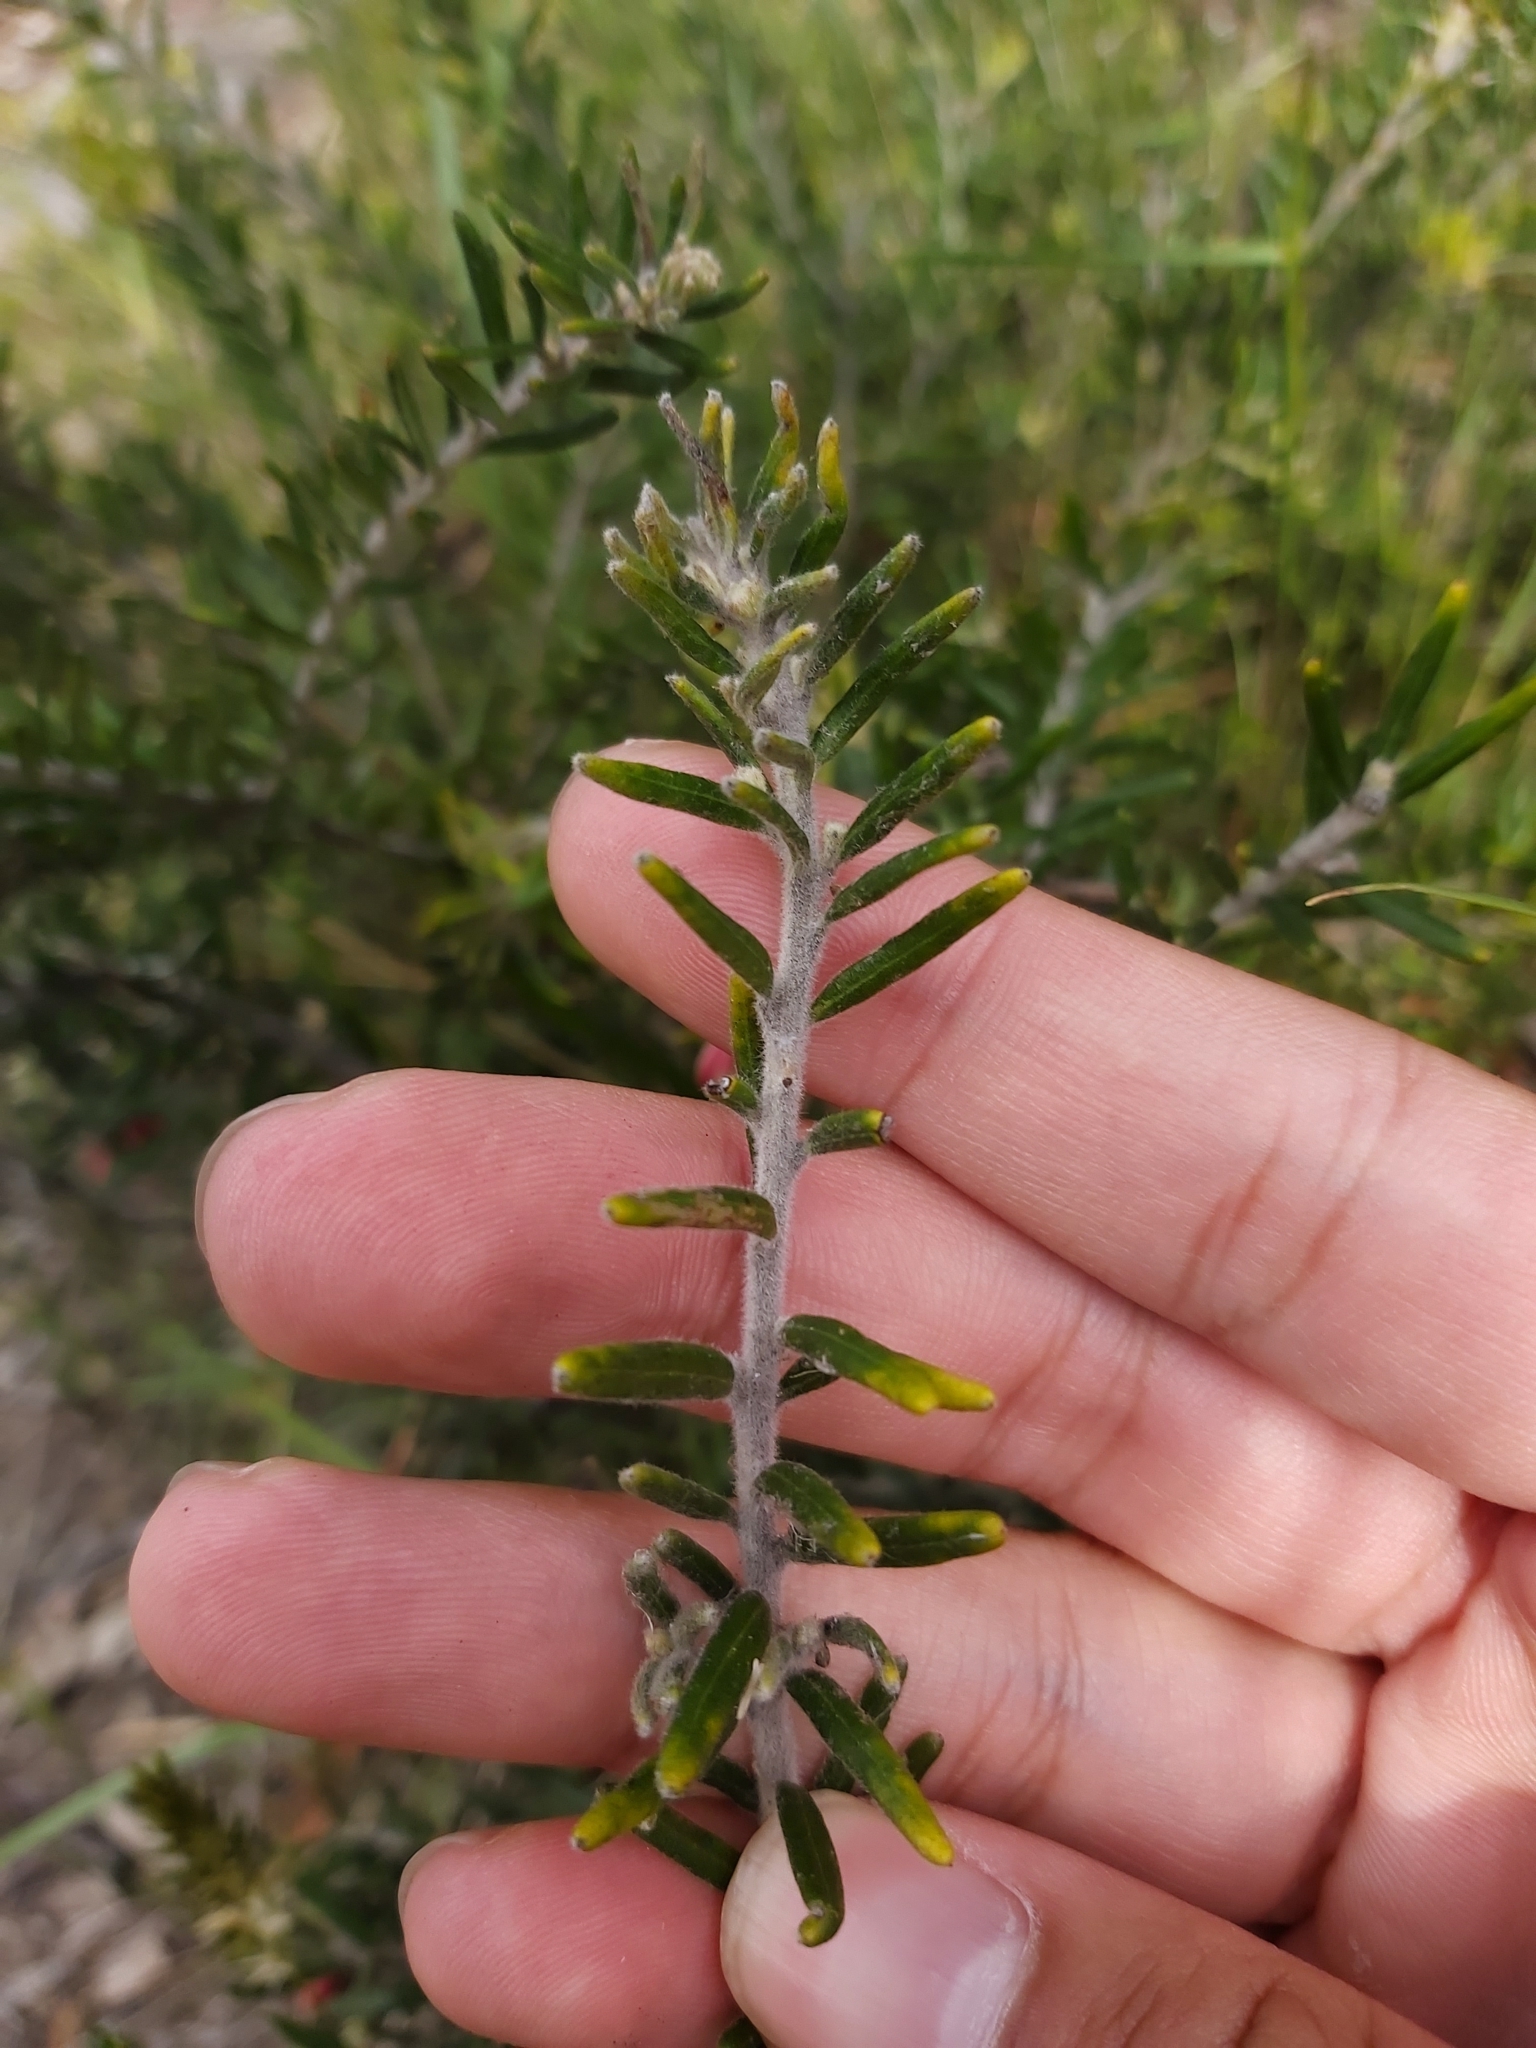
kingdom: Plantae
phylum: Tracheophyta
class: Magnoliopsida
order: Proteales
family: Proteaceae
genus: Grevillea
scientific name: Grevillea lanigera
